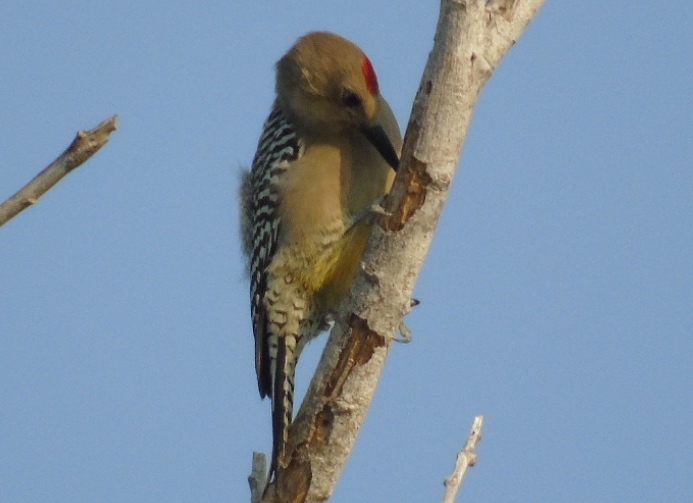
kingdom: Animalia
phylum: Chordata
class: Aves
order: Piciformes
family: Picidae
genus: Melanerpes
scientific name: Melanerpes uropygialis
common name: Gila woodpecker
